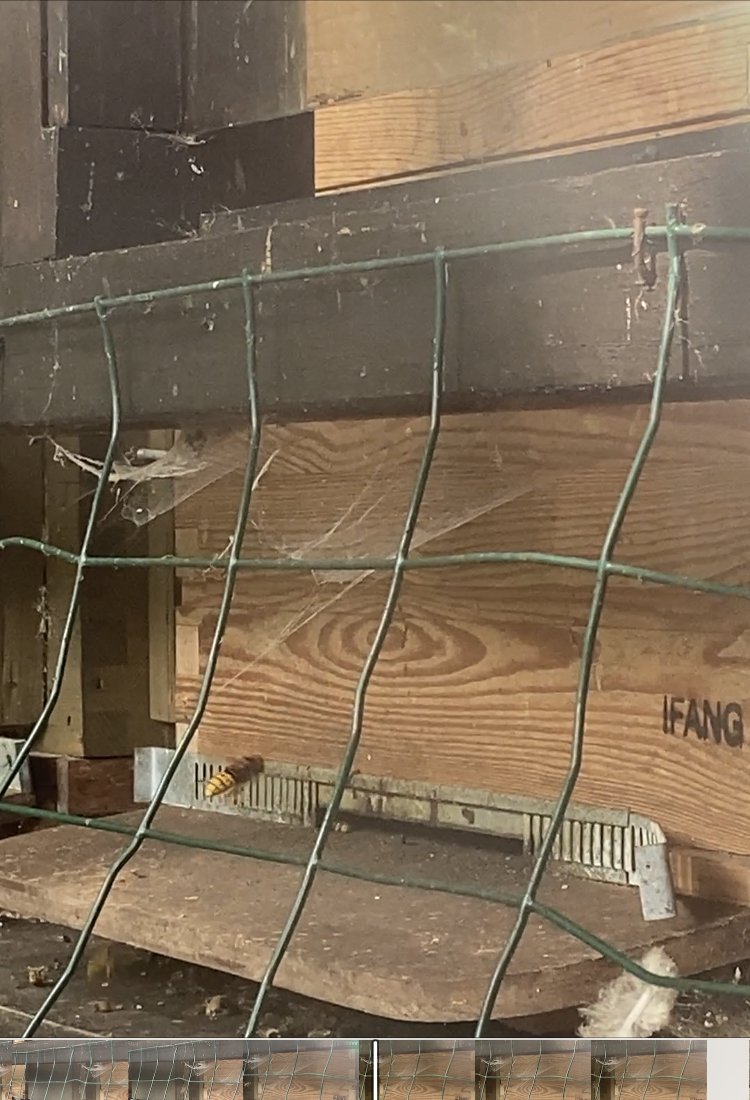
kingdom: Animalia
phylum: Arthropoda
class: Insecta
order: Hymenoptera
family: Vespidae
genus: Vespa
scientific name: Vespa crabro
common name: Hornet
